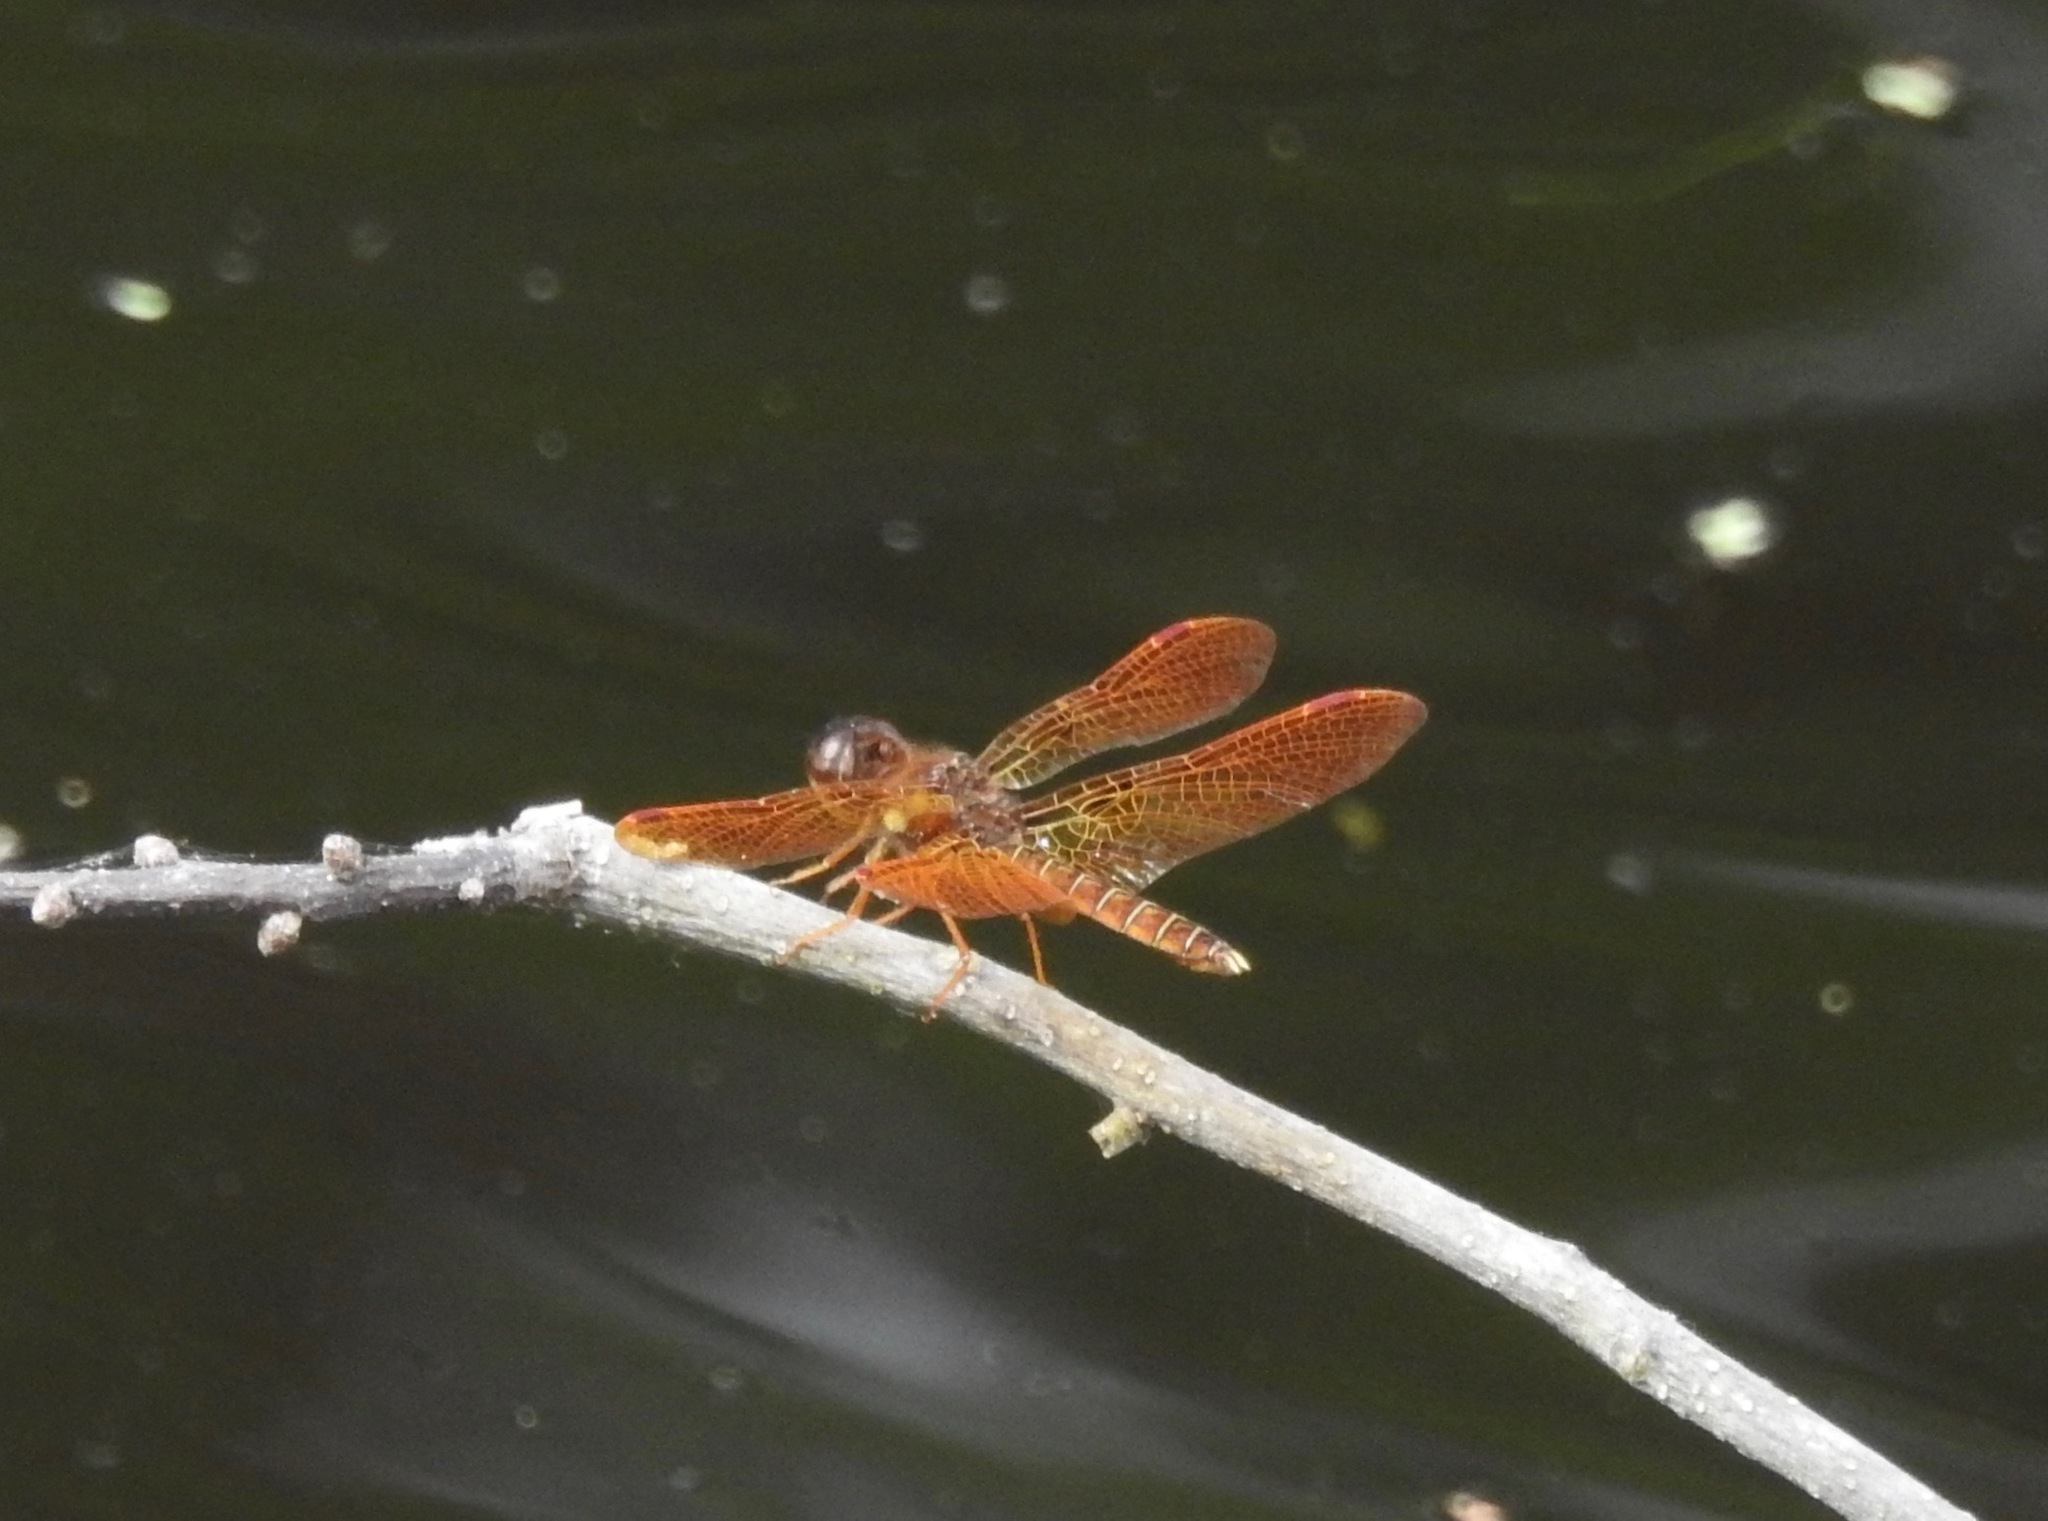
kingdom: Animalia
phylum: Arthropoda
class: Insecta
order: Odonata
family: Libellulidae
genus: Perithemis
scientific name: Perithemis tenera
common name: Eastern amberwing
